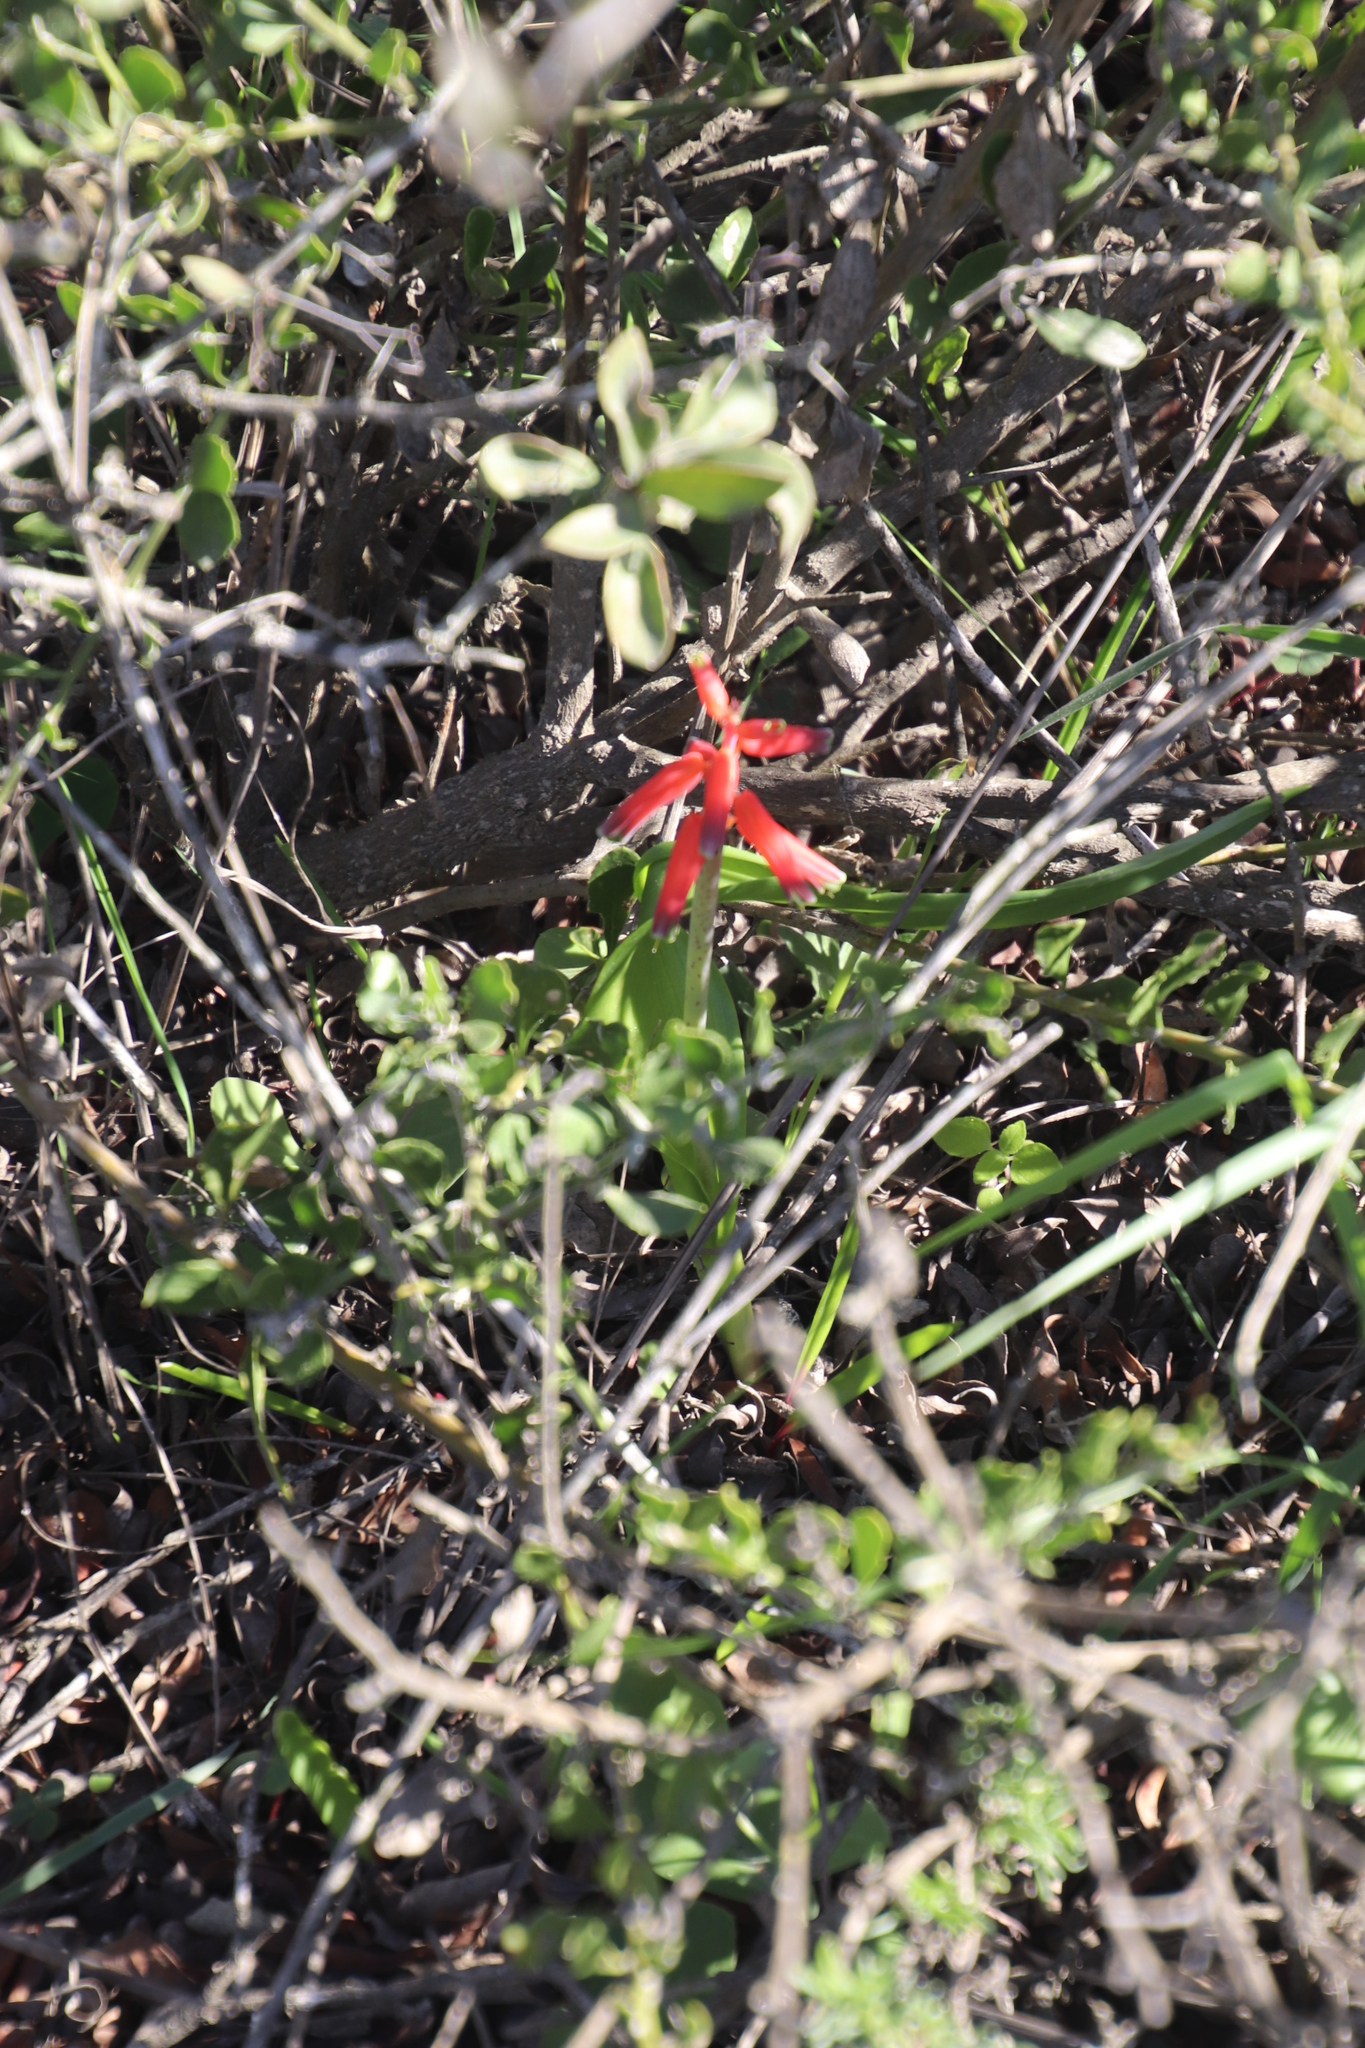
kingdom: Plantae
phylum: Tracheophyta
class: Liliopsida
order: Asparagales
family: Asparagaceae
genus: Lachenalia
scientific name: Lachenalia bulbifera
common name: Red lachenalia
